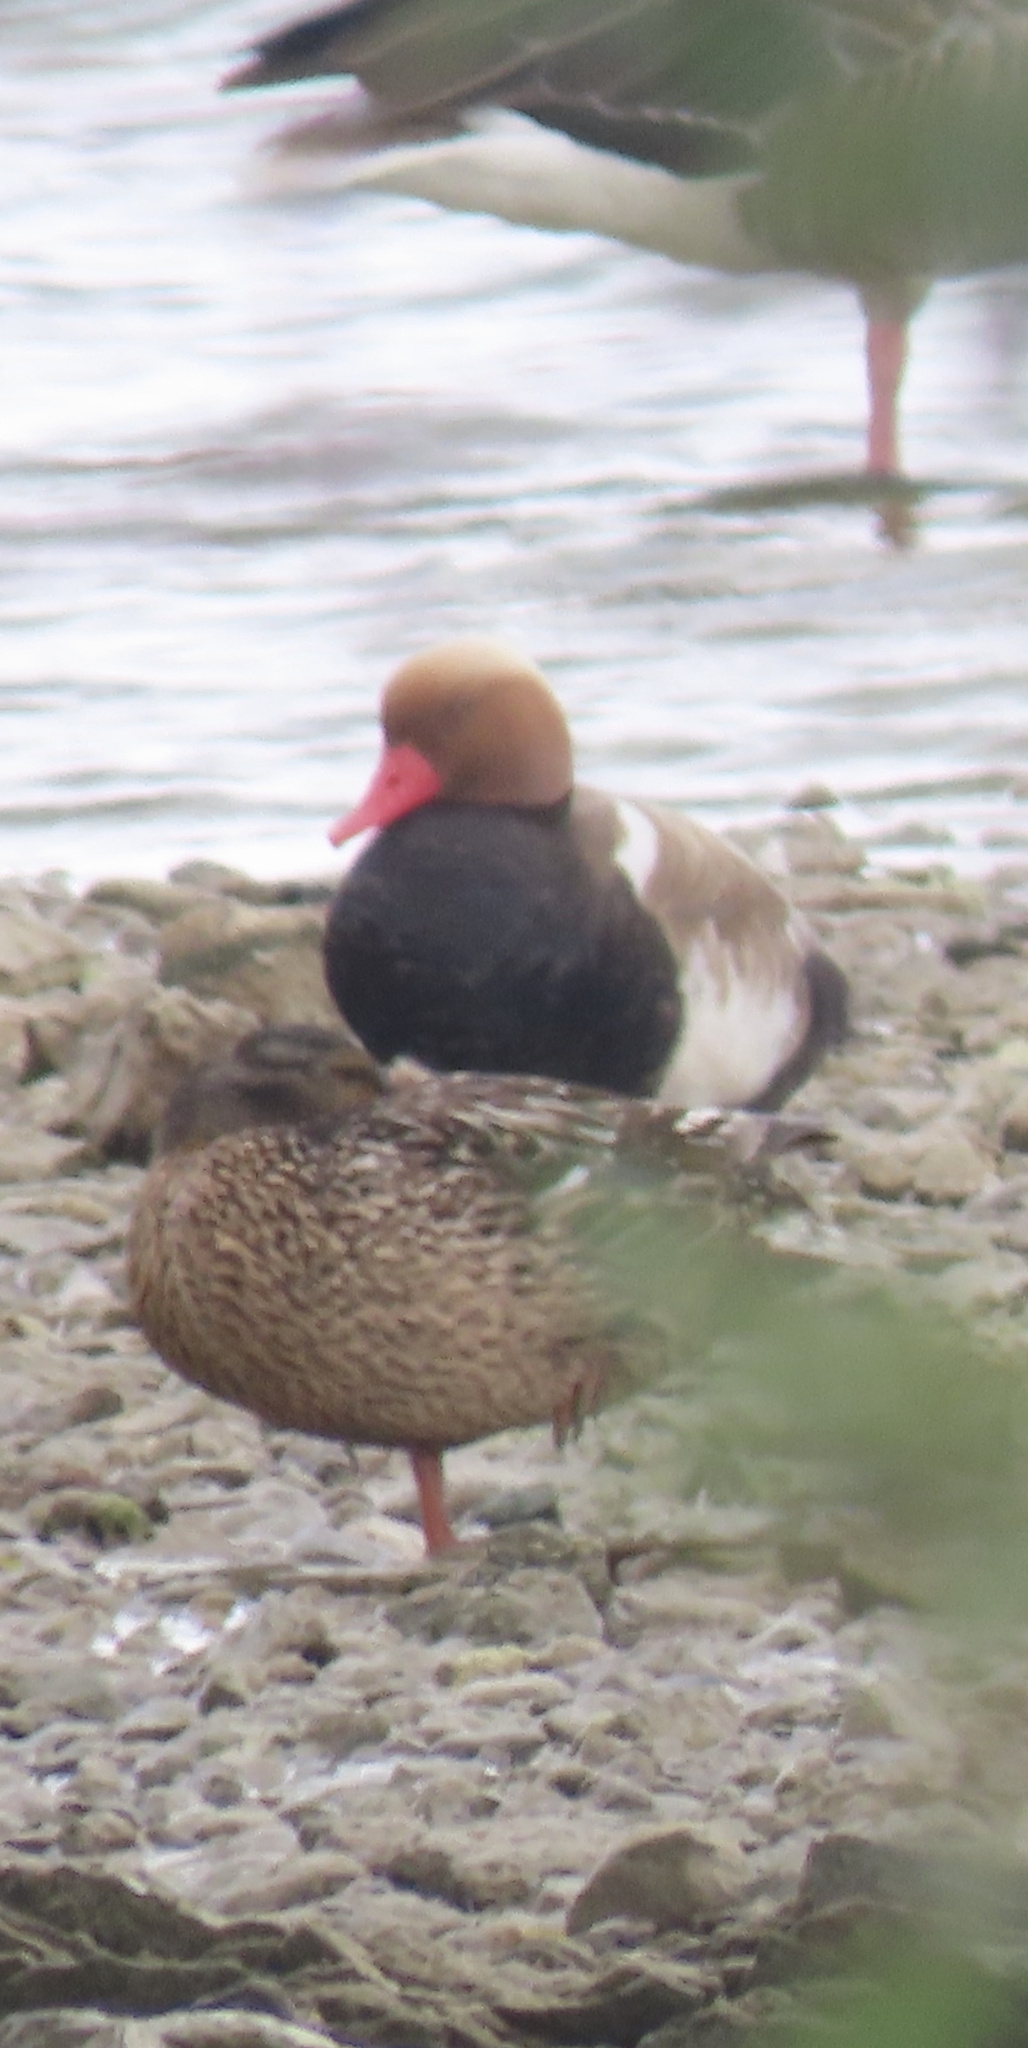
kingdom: Animalia
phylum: Chordata
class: Aves
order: Anseriformes
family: Anatidae
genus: Netta
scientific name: Netta rufina
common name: Red-crested pochard
